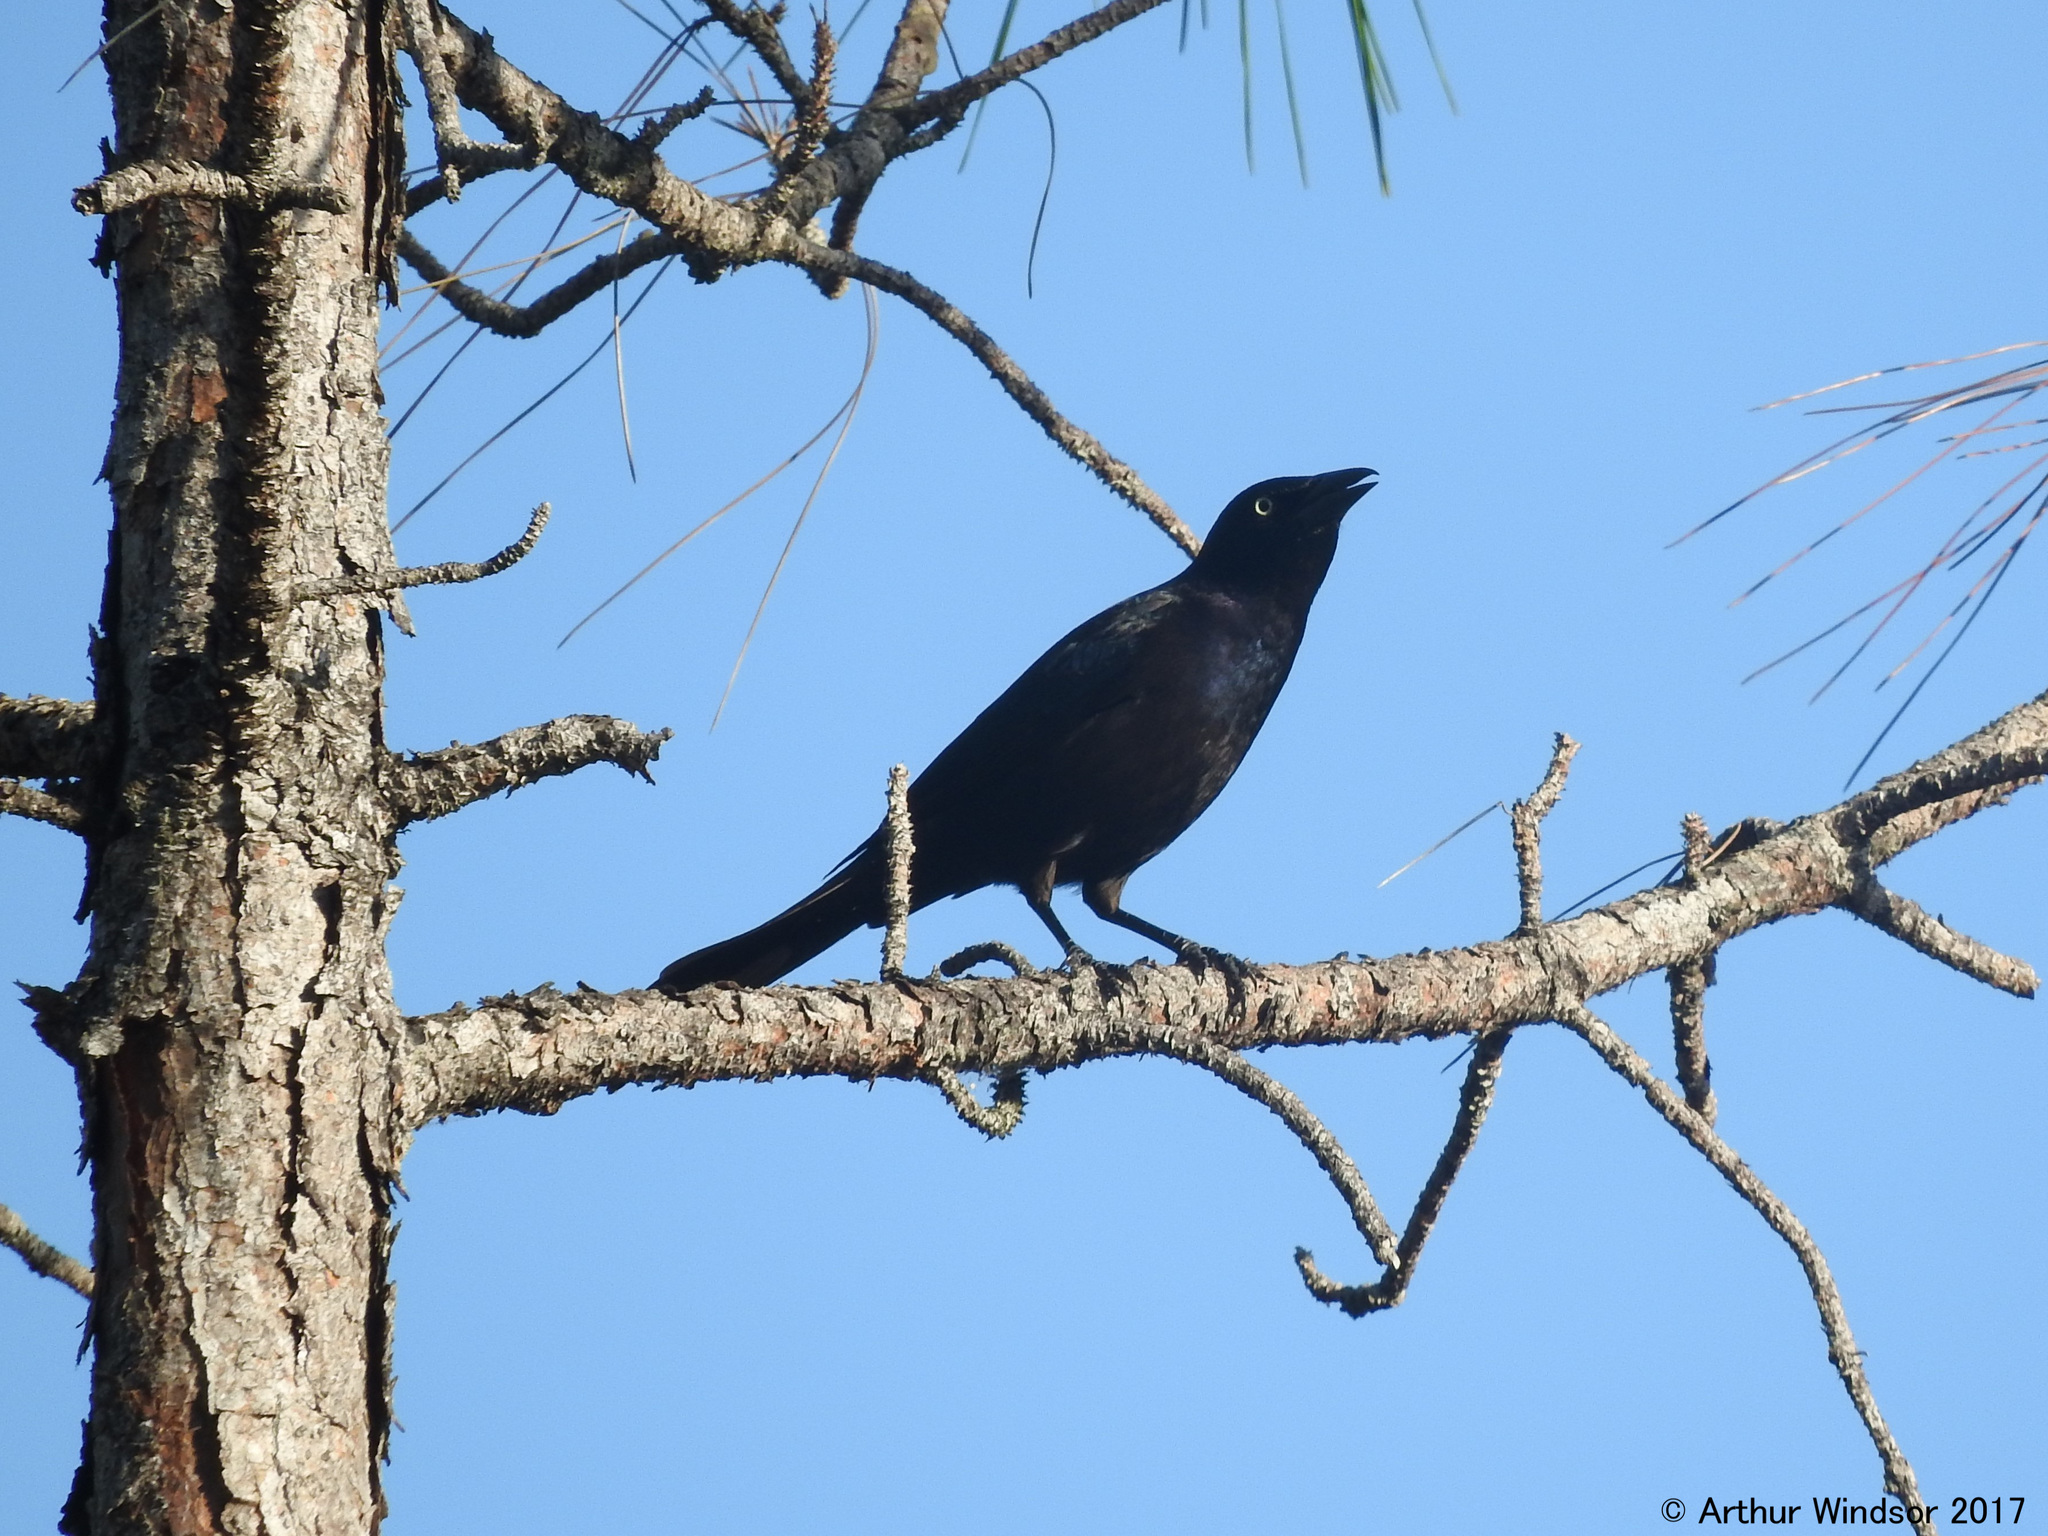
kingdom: Animalia
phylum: Chordata
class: Aves
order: Passeriformes
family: Icteridae
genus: Quiscalus
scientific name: Quiscalus quiscula
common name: Common grackle
